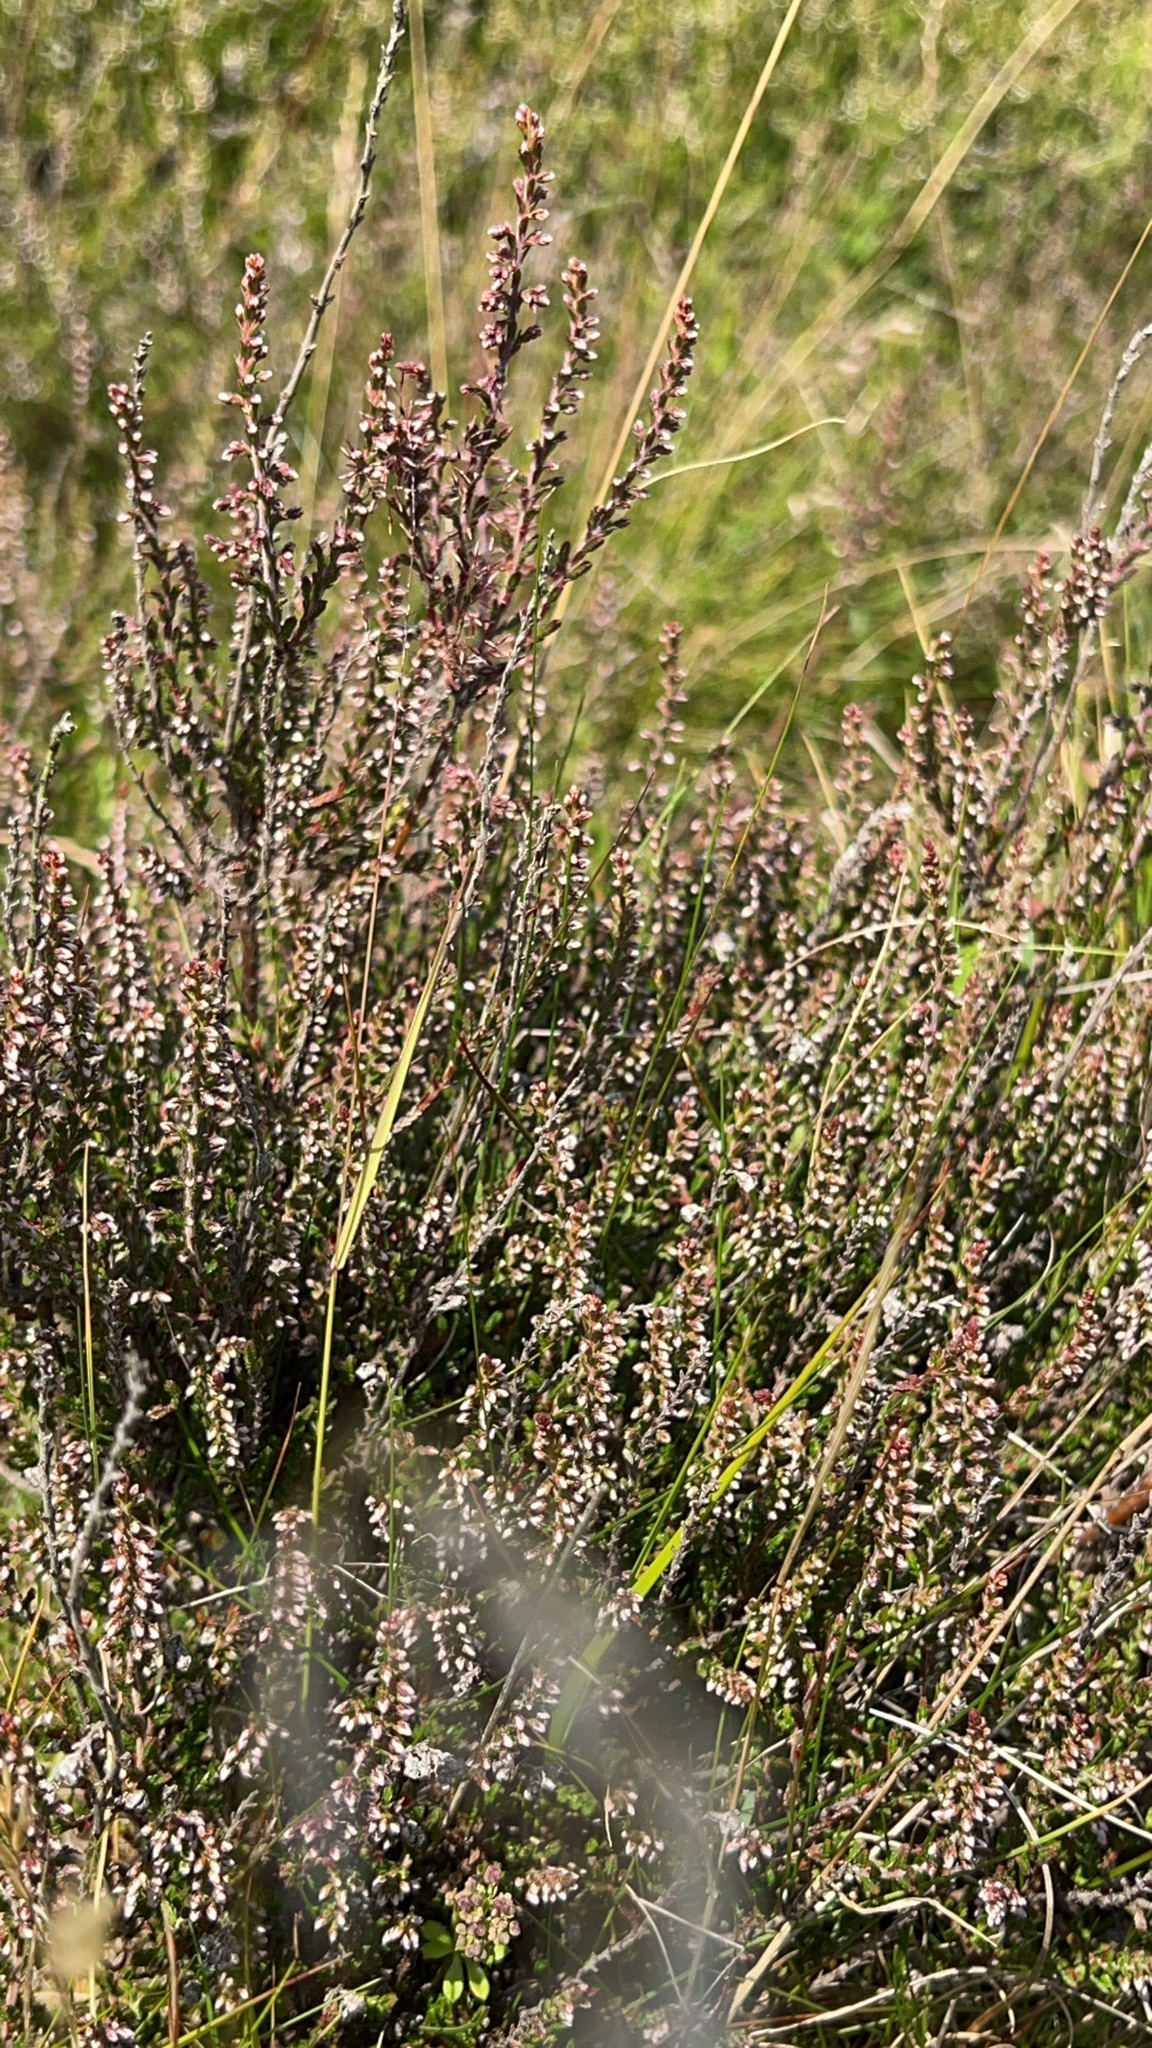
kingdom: Plantae
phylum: Tracheophyta
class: Magnoliopsida
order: Ericales
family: Ericaceae
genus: Calluna
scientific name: Calluna vulgaris
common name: Heather
